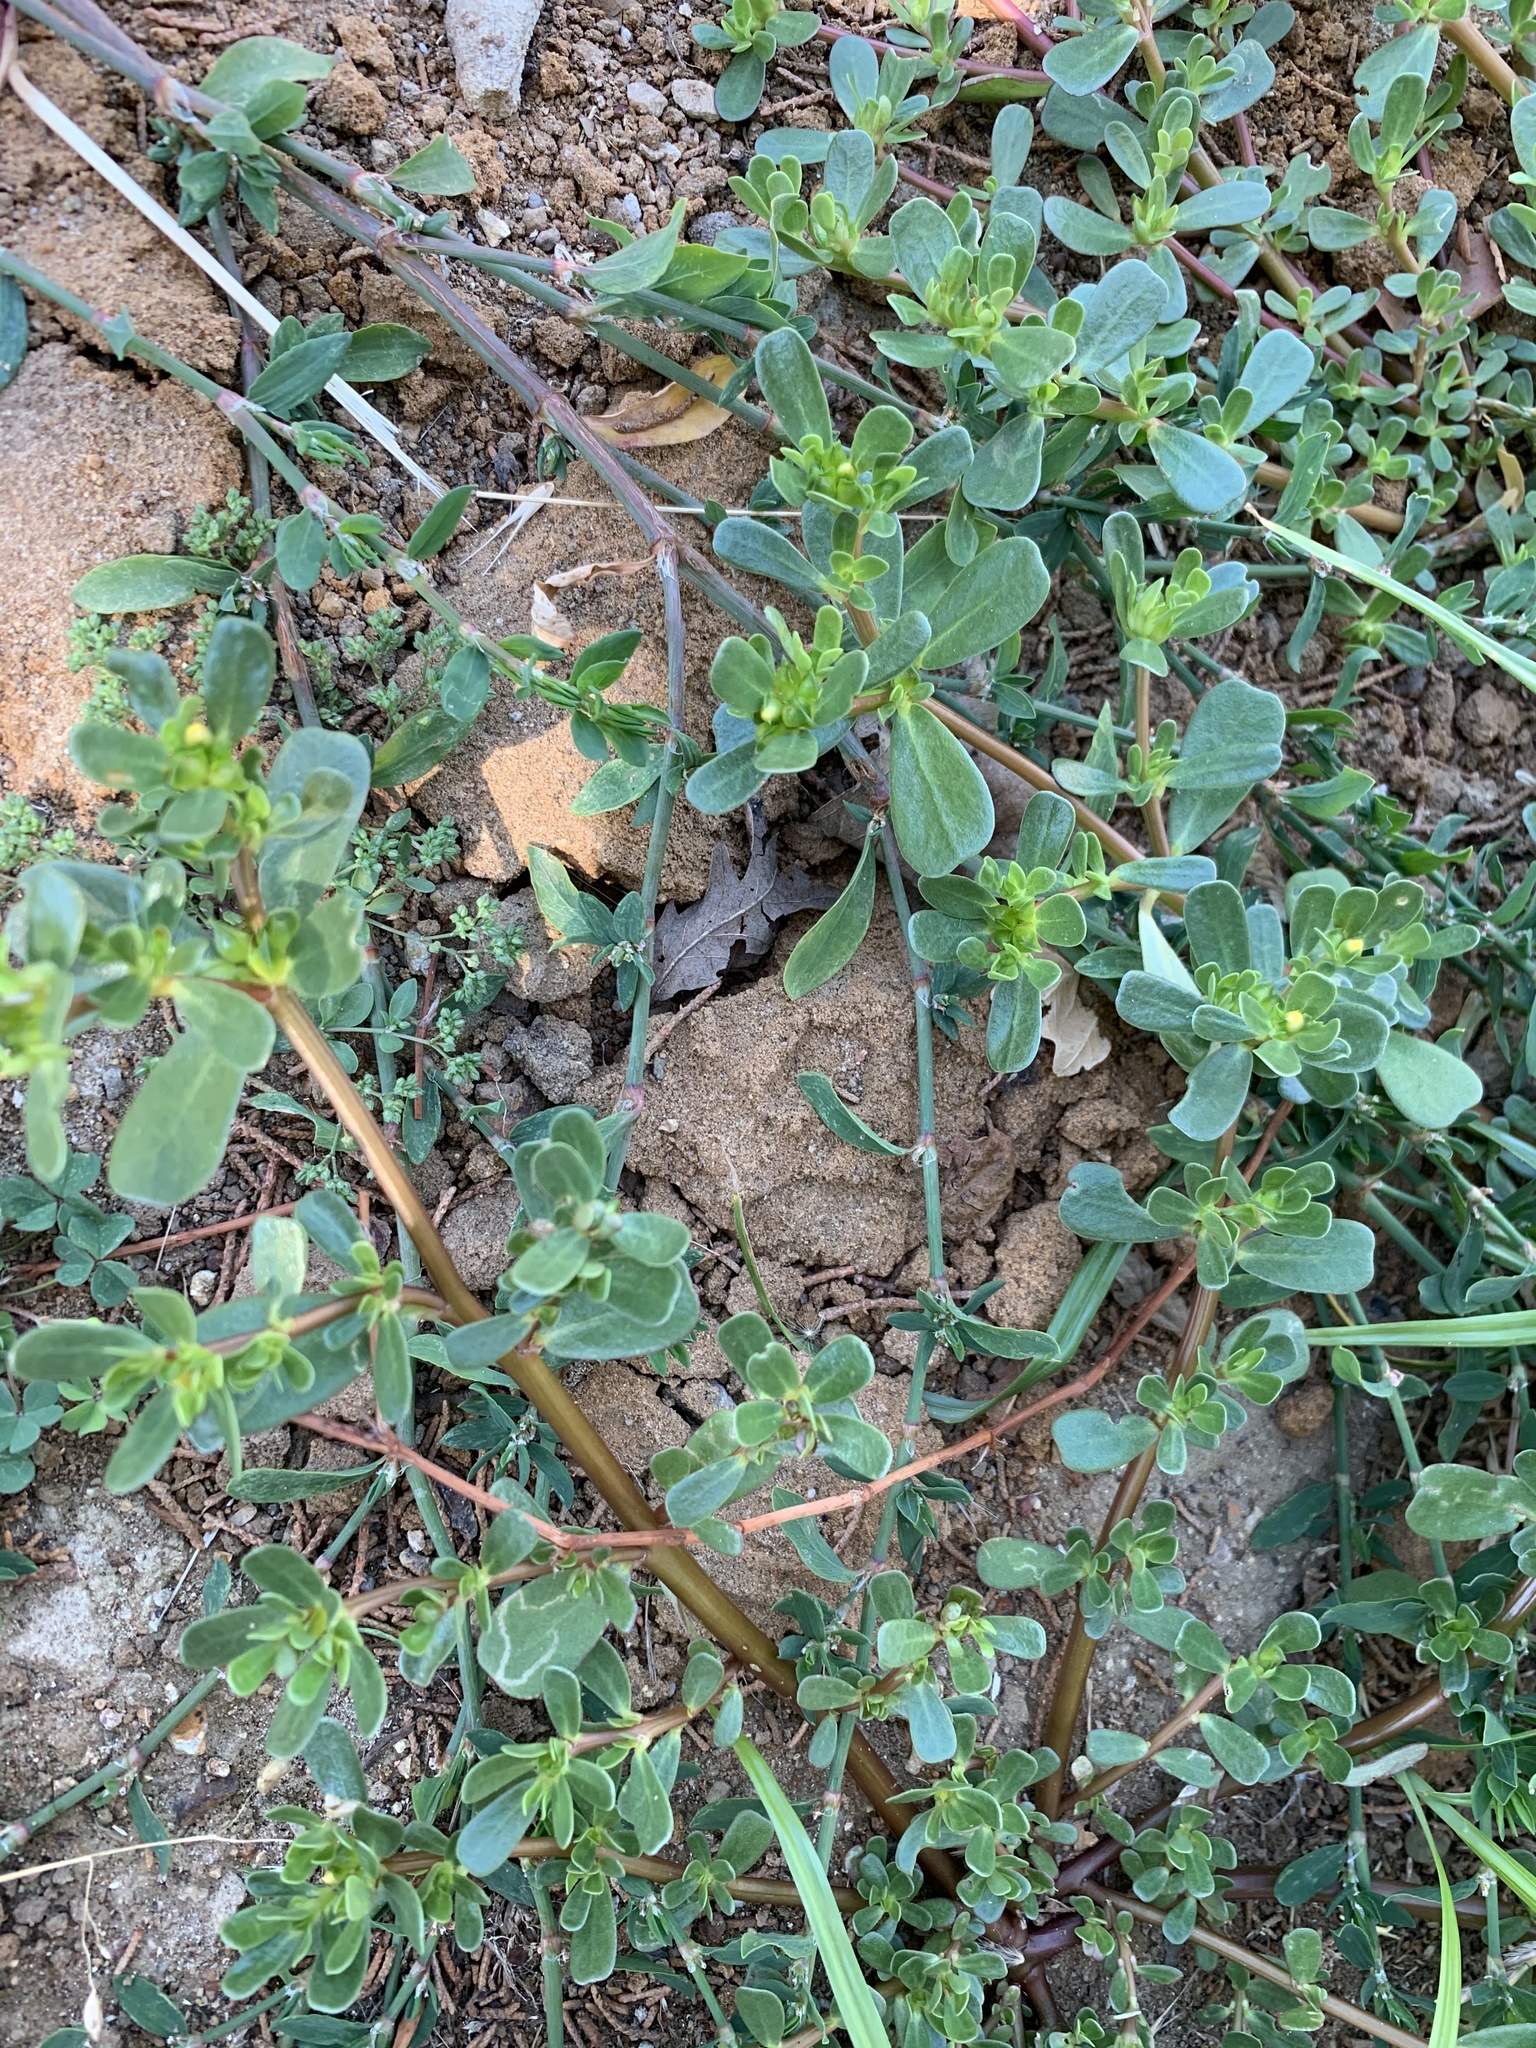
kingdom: Plantae
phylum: Tracheophyta
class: Magnoliopsida
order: Caryophyllales
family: Portulacaceae
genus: Portulaca
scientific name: Portulaca oleracea
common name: Common purslane
